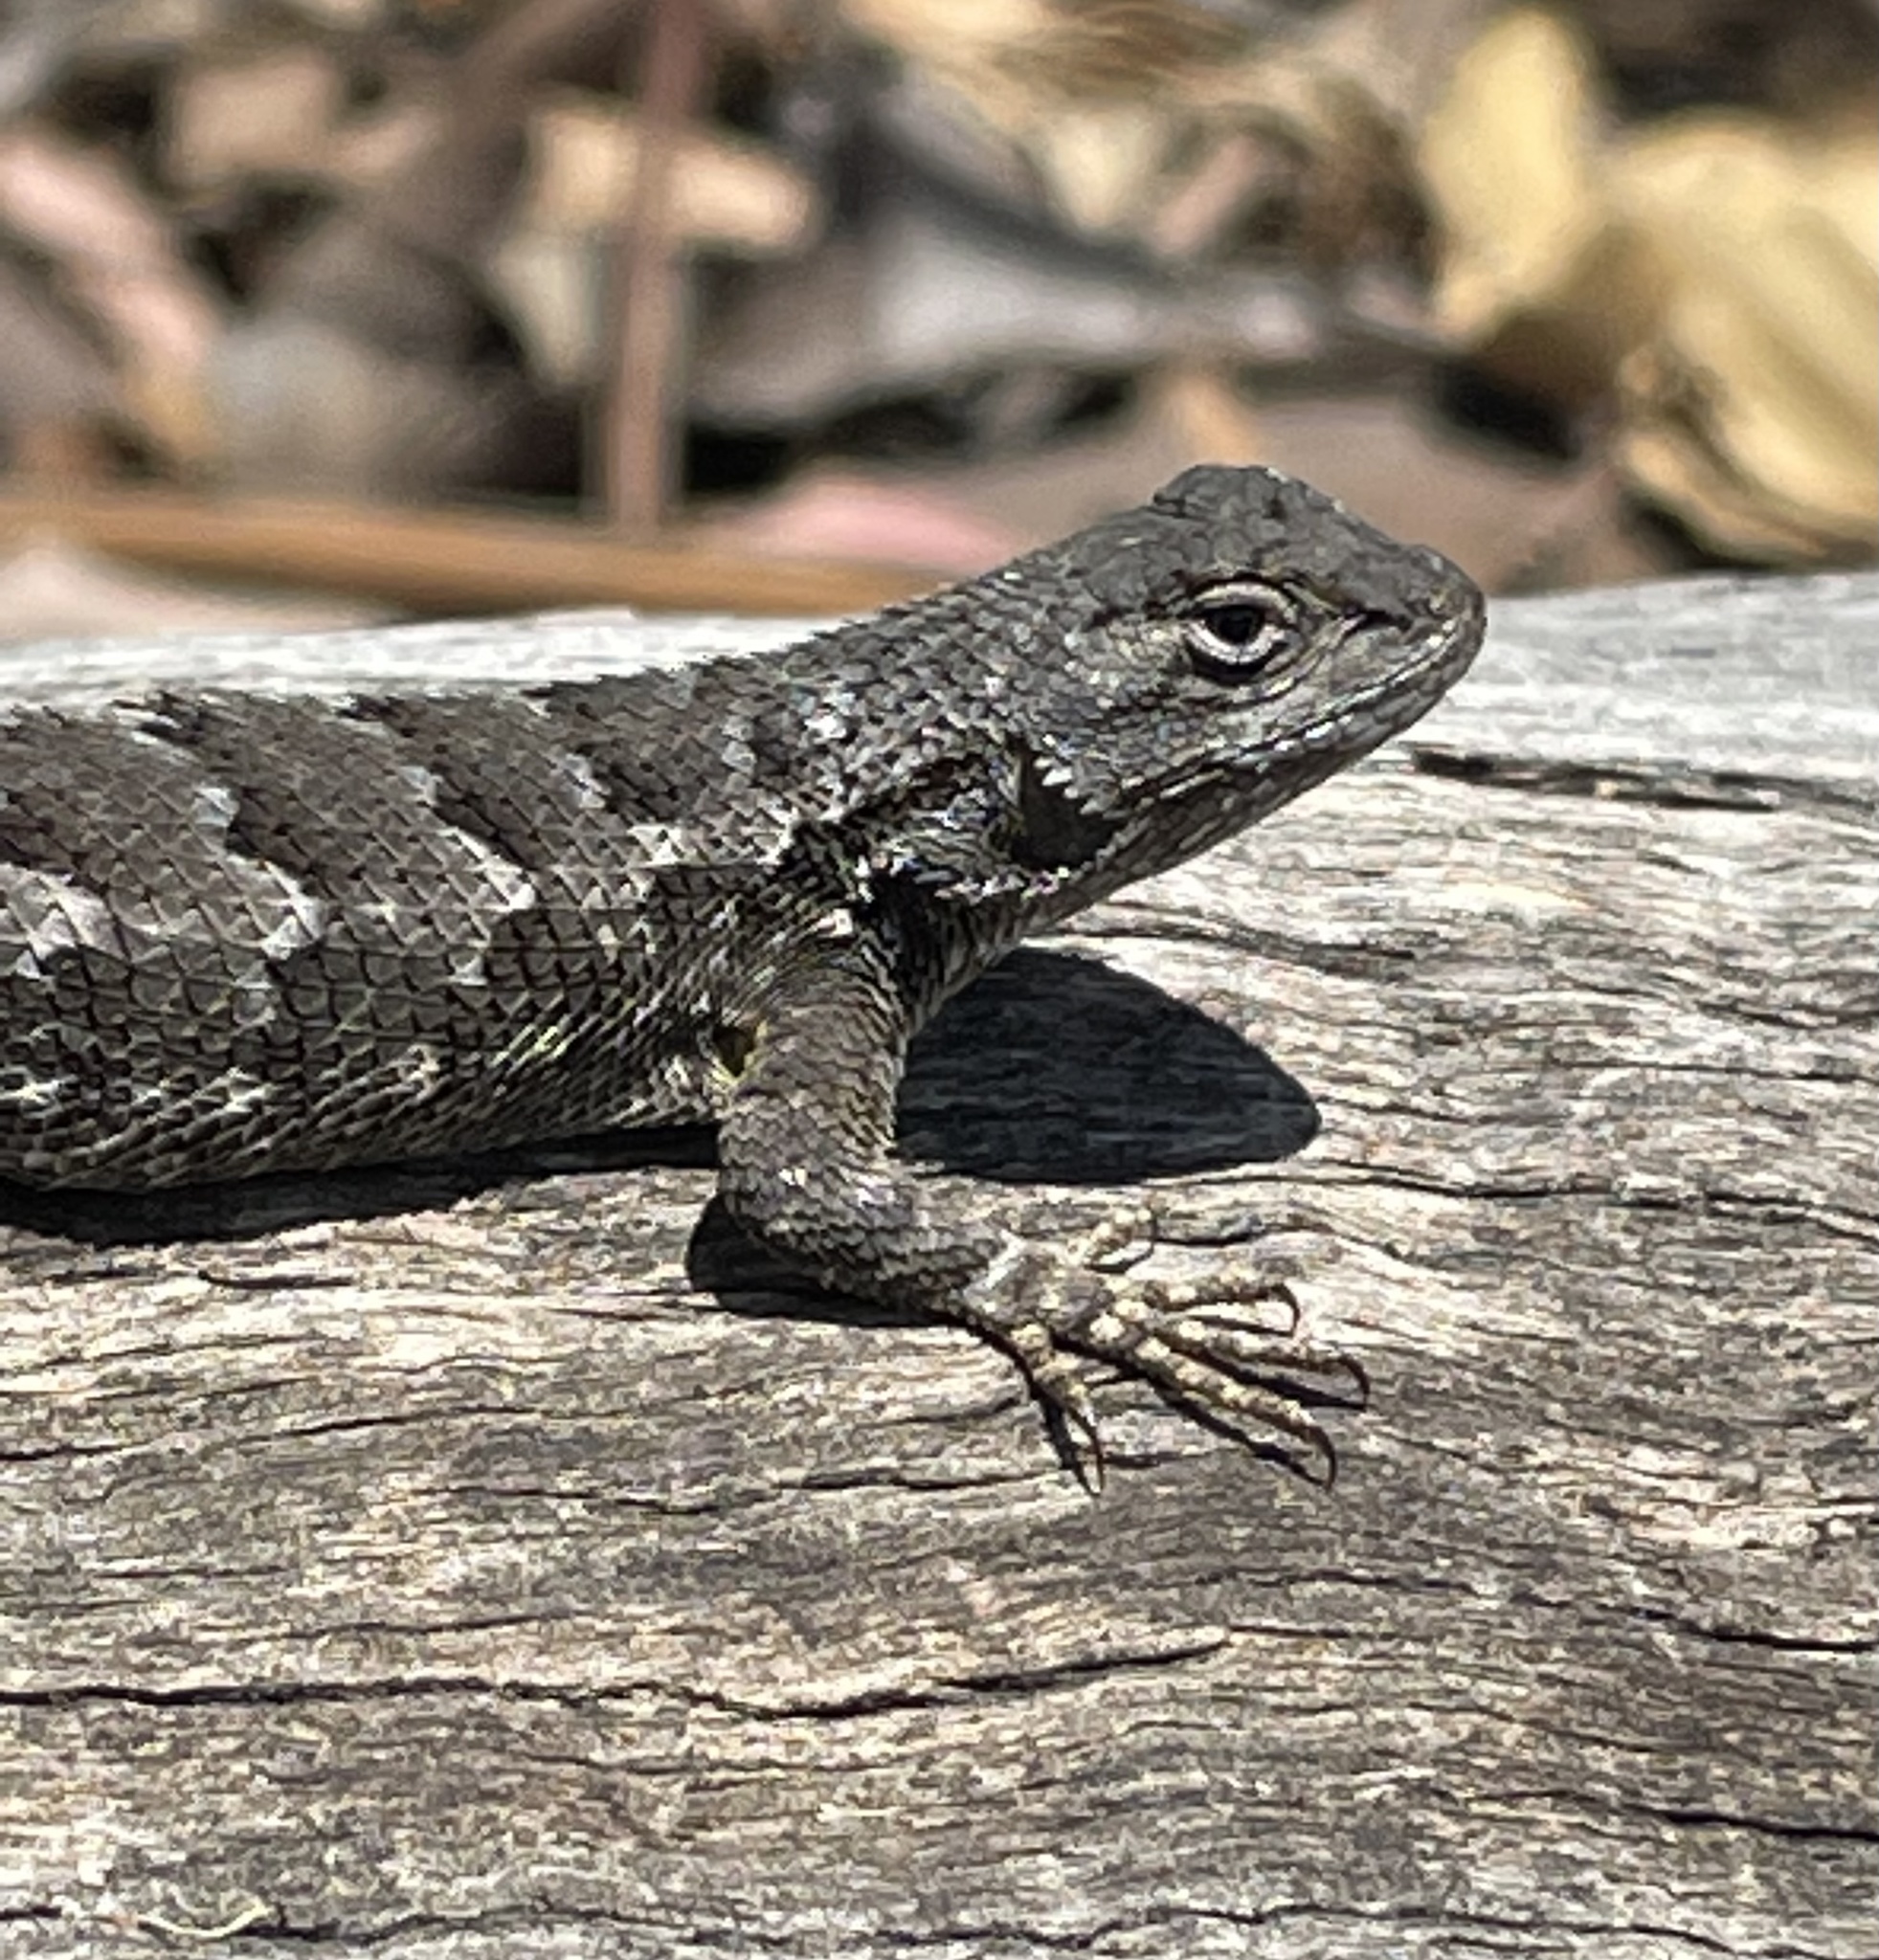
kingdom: Animalia
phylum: Chordata
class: Squamata
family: Phrynosomatidae
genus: Sceloporus
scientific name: Sceloporus occidentalis
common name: Western fence lizard
